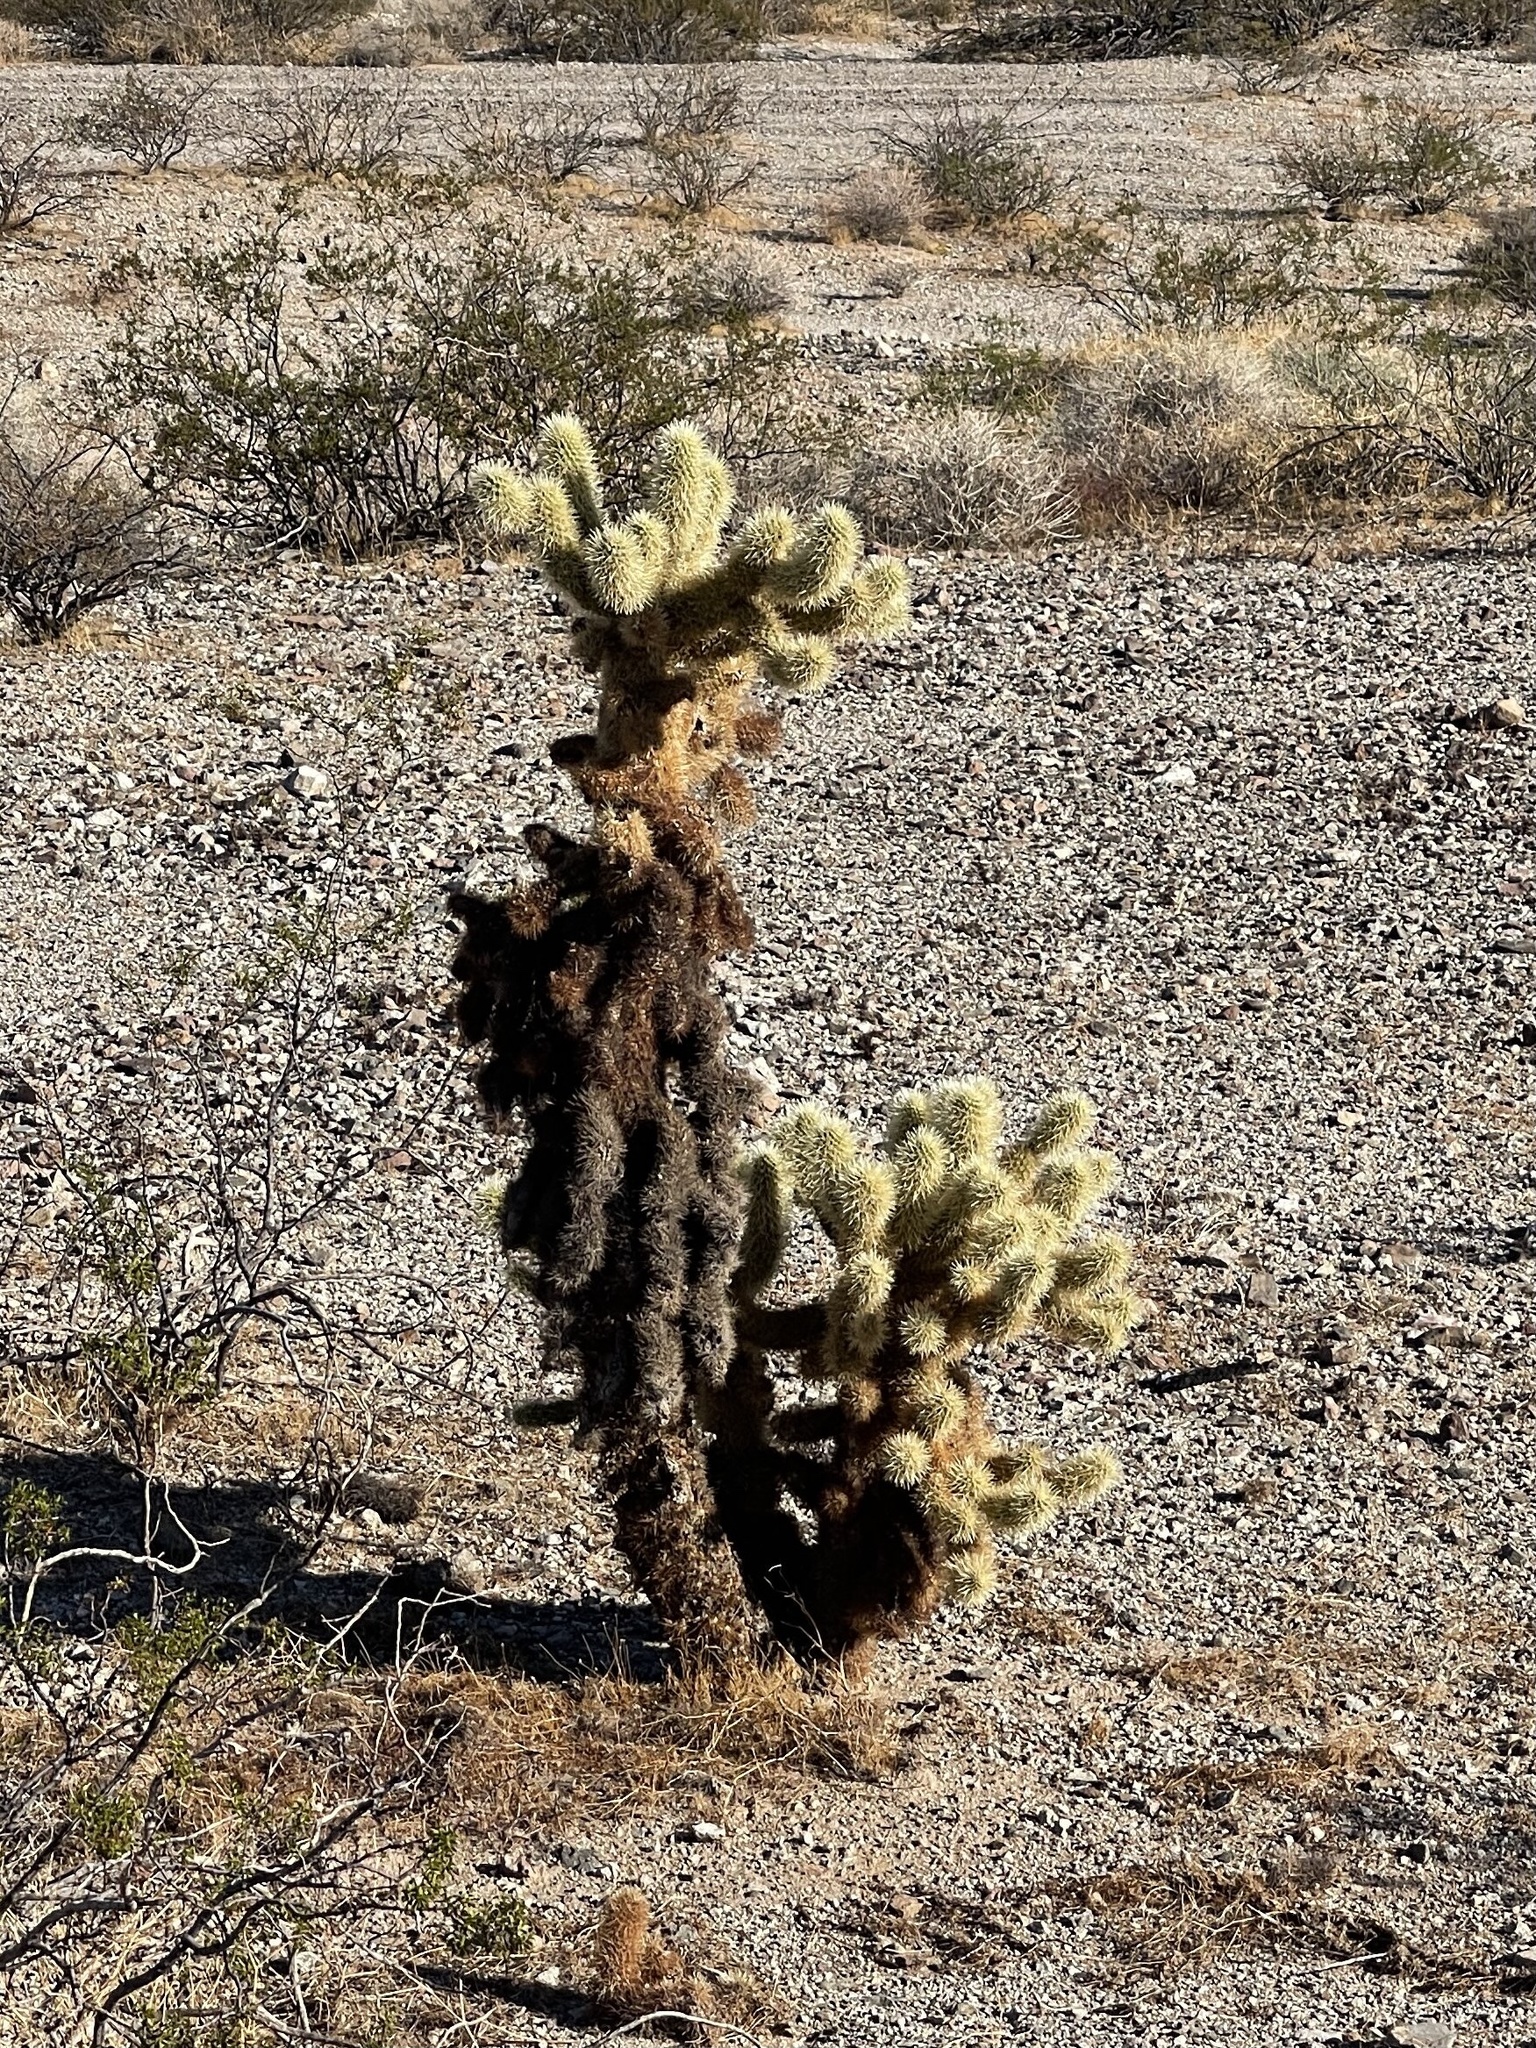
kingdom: Plantae
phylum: Tracheophyta
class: Magnoliopsida
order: Caryophyllales
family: Cactaceae
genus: Cylindropuntia
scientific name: Cylindropuntia fosbergii
